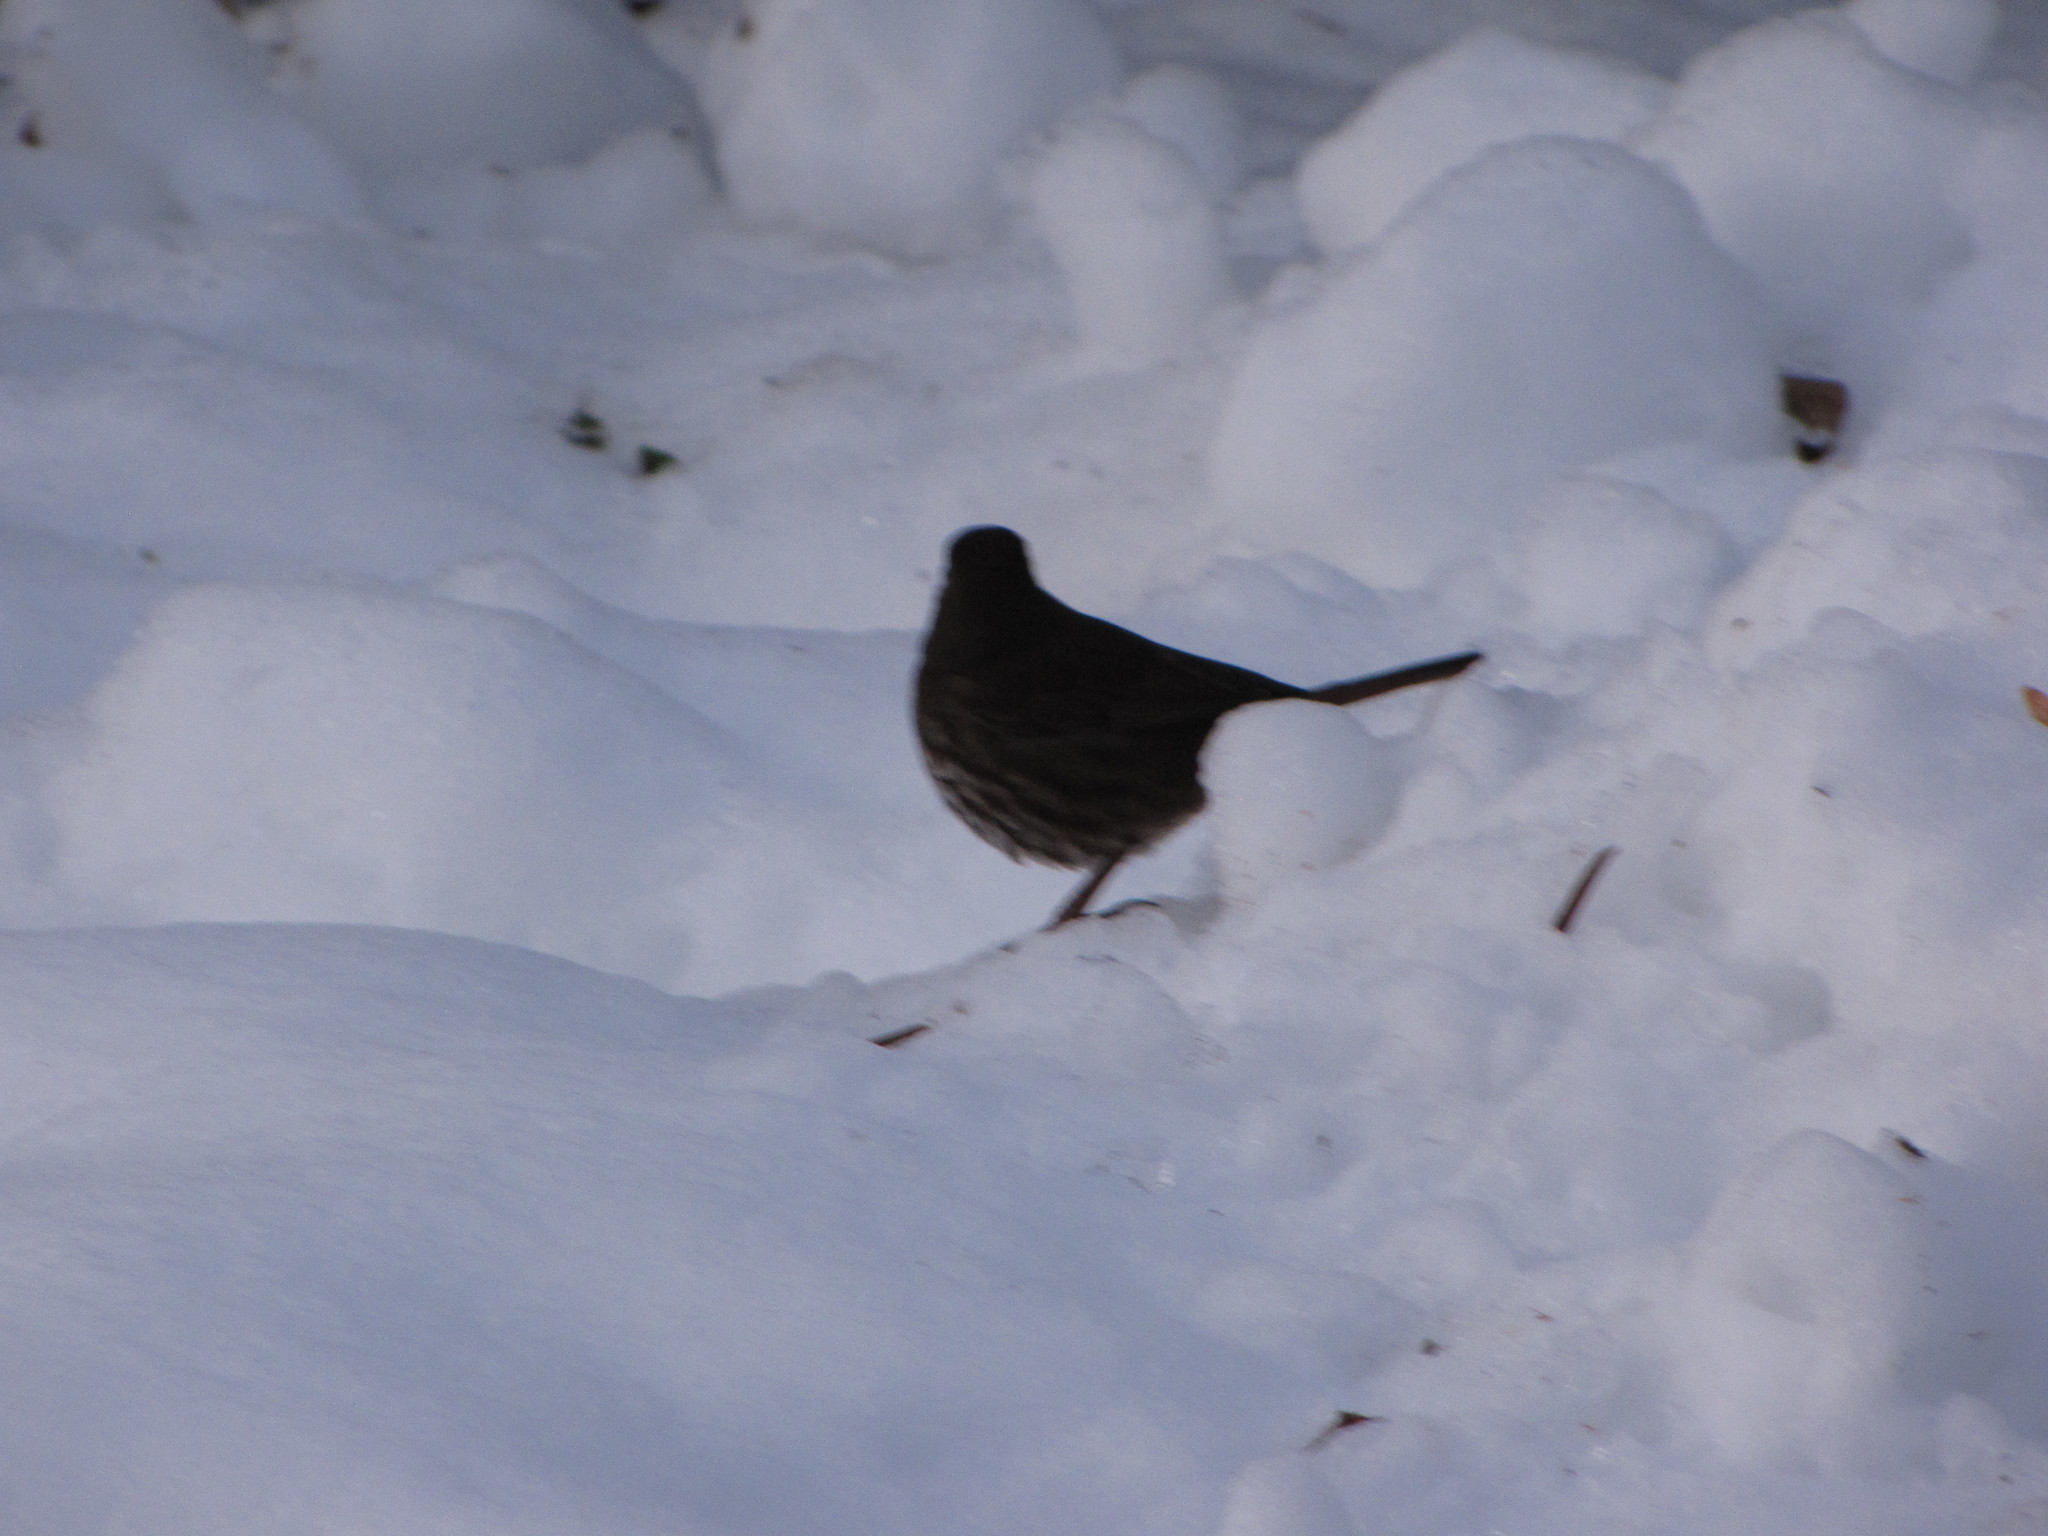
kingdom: Animalia
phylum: Chordata
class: Aves
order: Passeriformes
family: Passerellidae
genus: Passerella
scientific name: Passerella iliaca
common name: Fox sparrow
